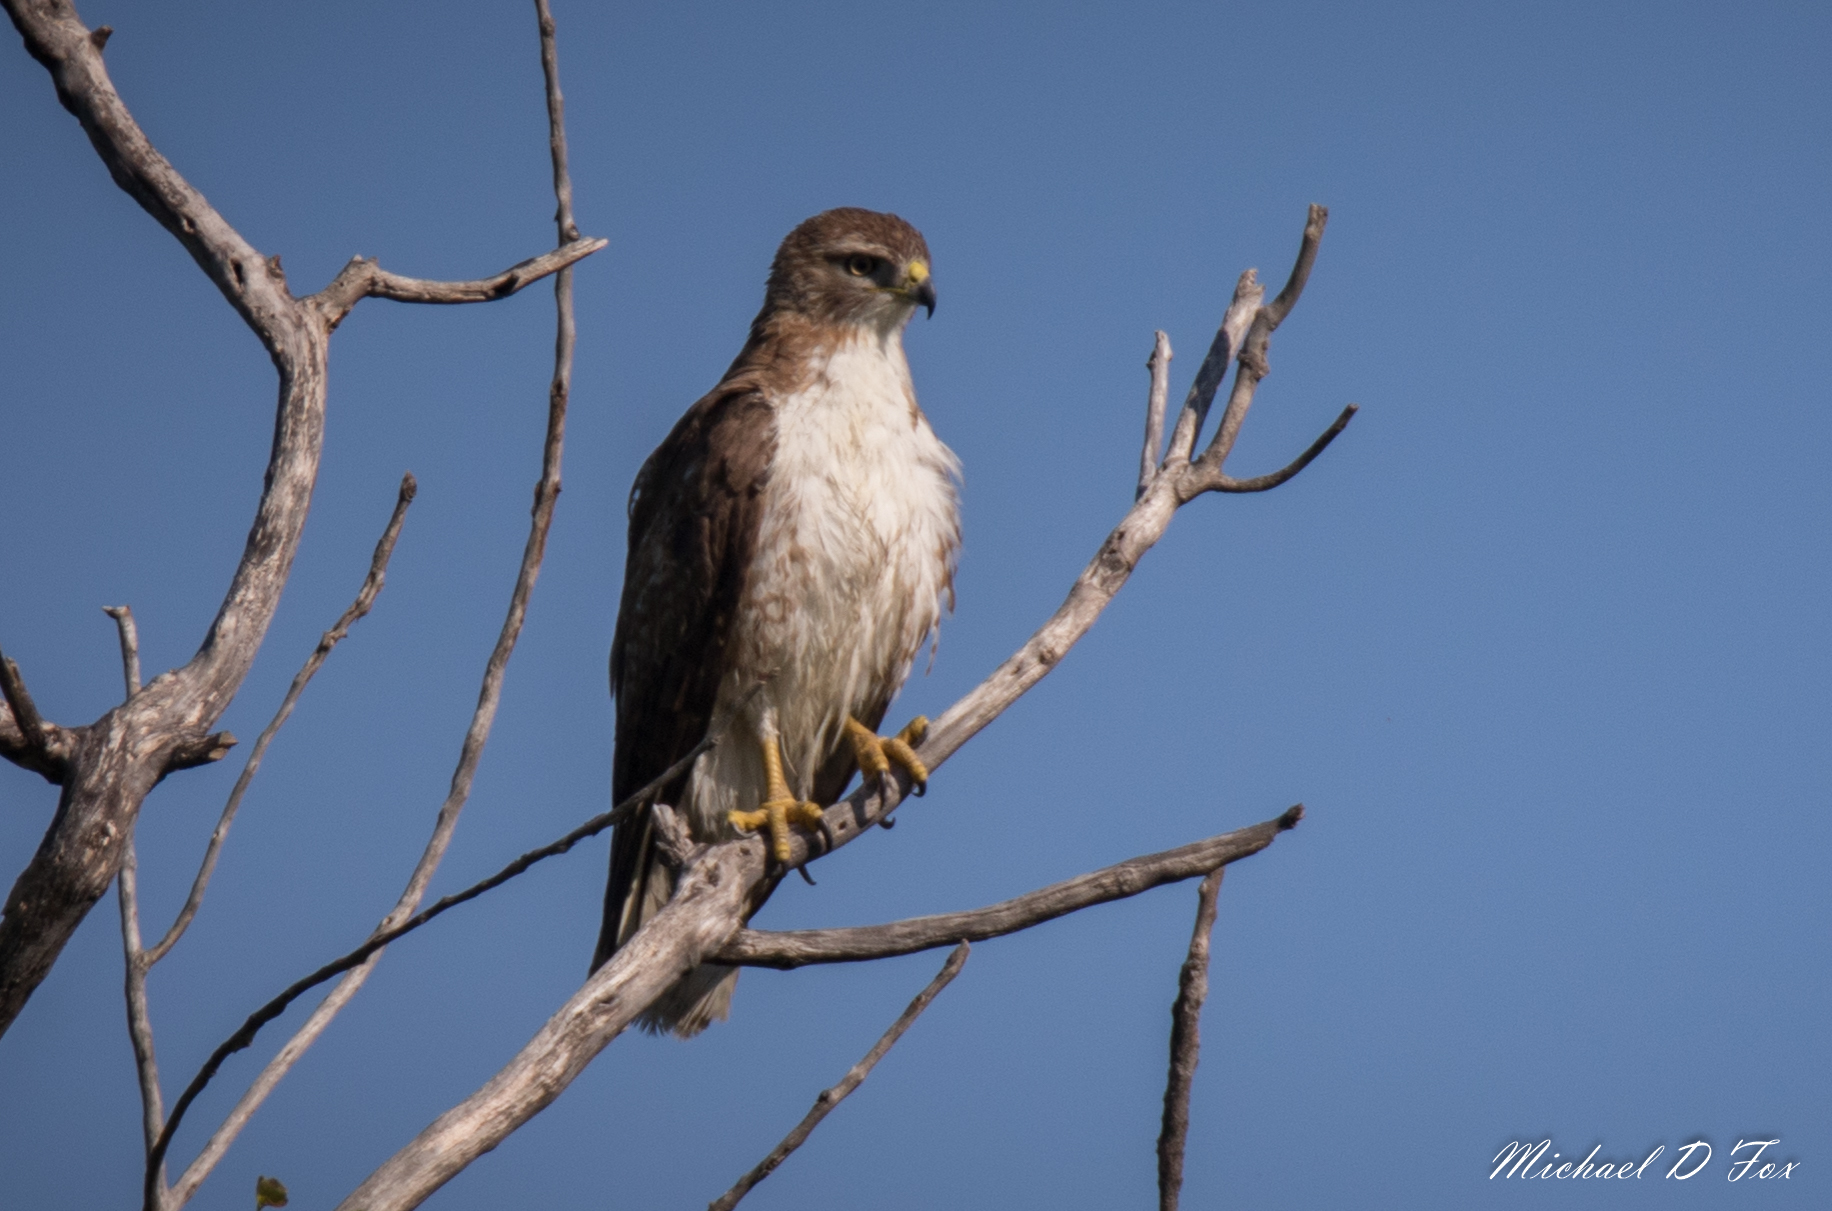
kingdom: Animalia
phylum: Chordata
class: Aves
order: Accipitriformes
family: Accipitridae
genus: Buteo
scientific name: Buteo jamaicensis
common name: Red-tailed hawk
